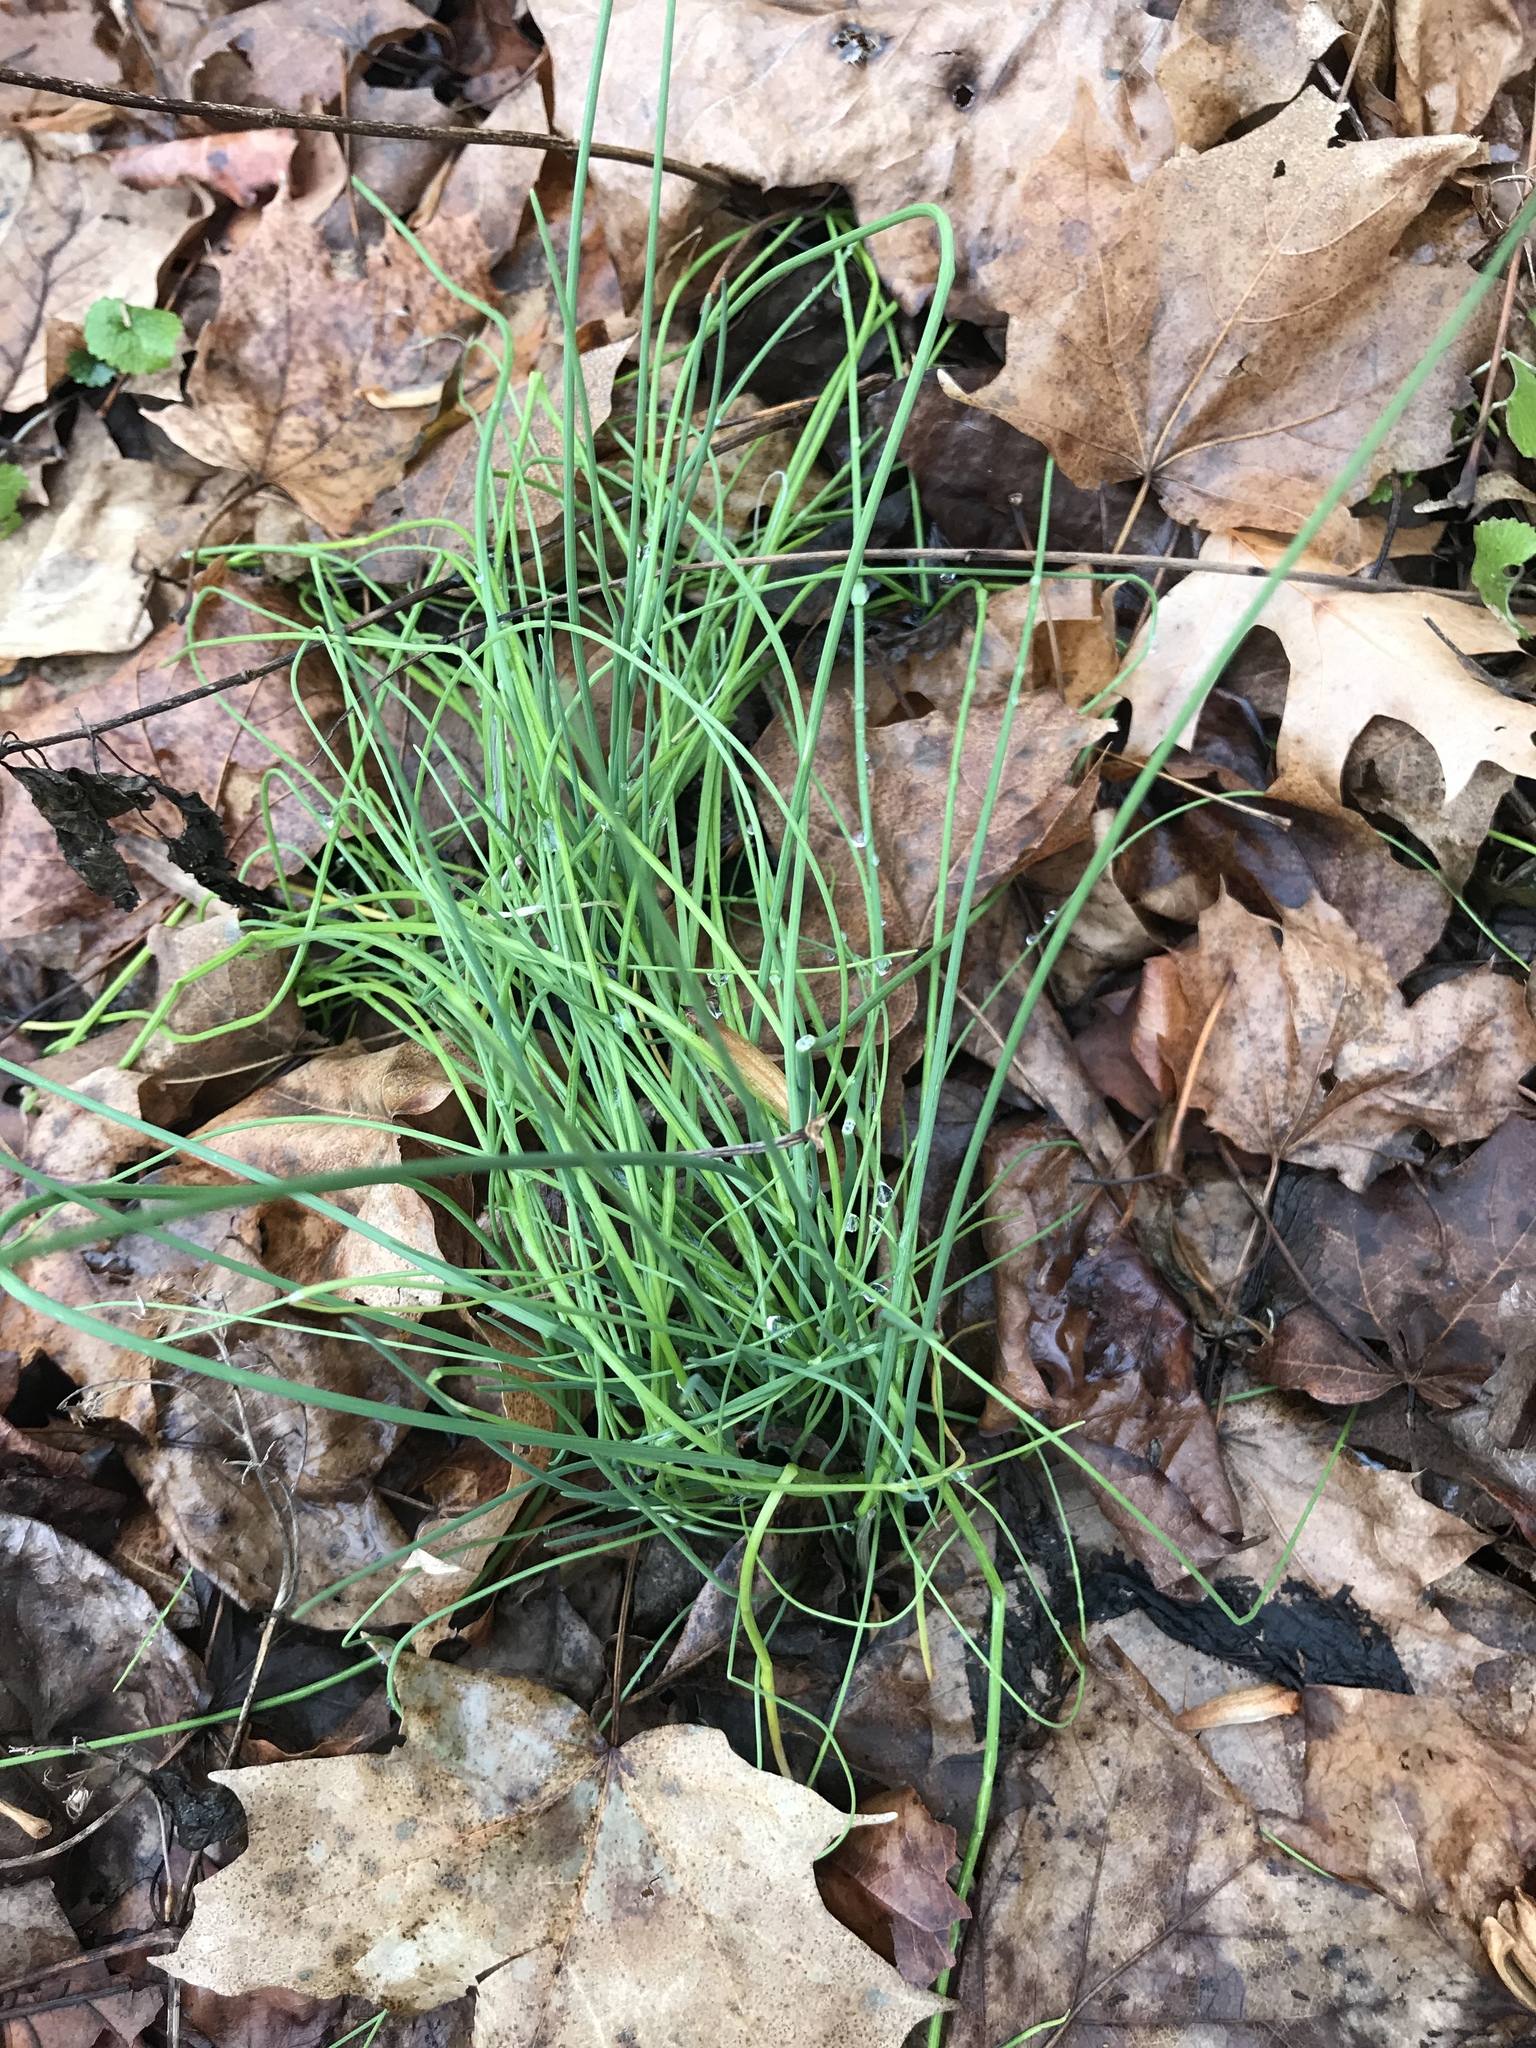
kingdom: Plantae
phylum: Tracheophyta
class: Liliopsida
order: Asparagales
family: Amaryllidaceae
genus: Allium
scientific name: Allium vineale
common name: Crow garlic
